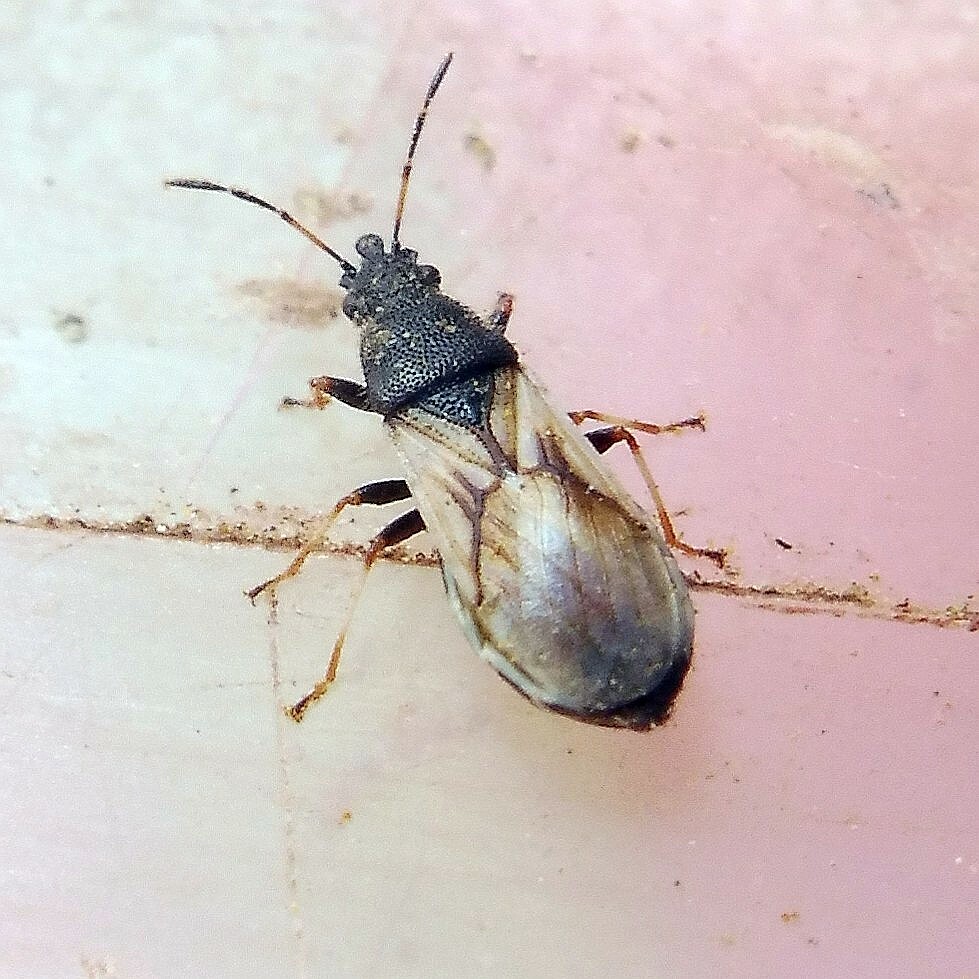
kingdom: Animalia
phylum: Arthropoda
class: Insecta
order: Hemiptera
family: Oxycarenidae
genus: Metopoplax
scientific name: Metopoplax ditomoides
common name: Seed bug
